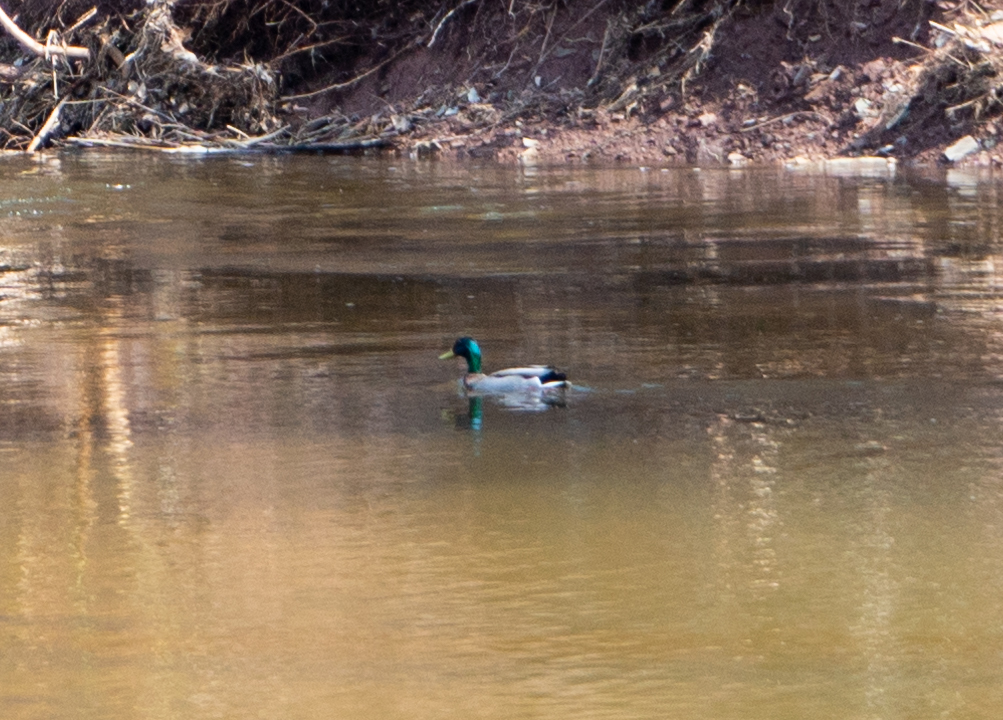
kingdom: Animalia
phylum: Chordata
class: Aves
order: Anseriformes
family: Anatidae
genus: Anas
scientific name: Anas platyrhynchos
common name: Mallard
